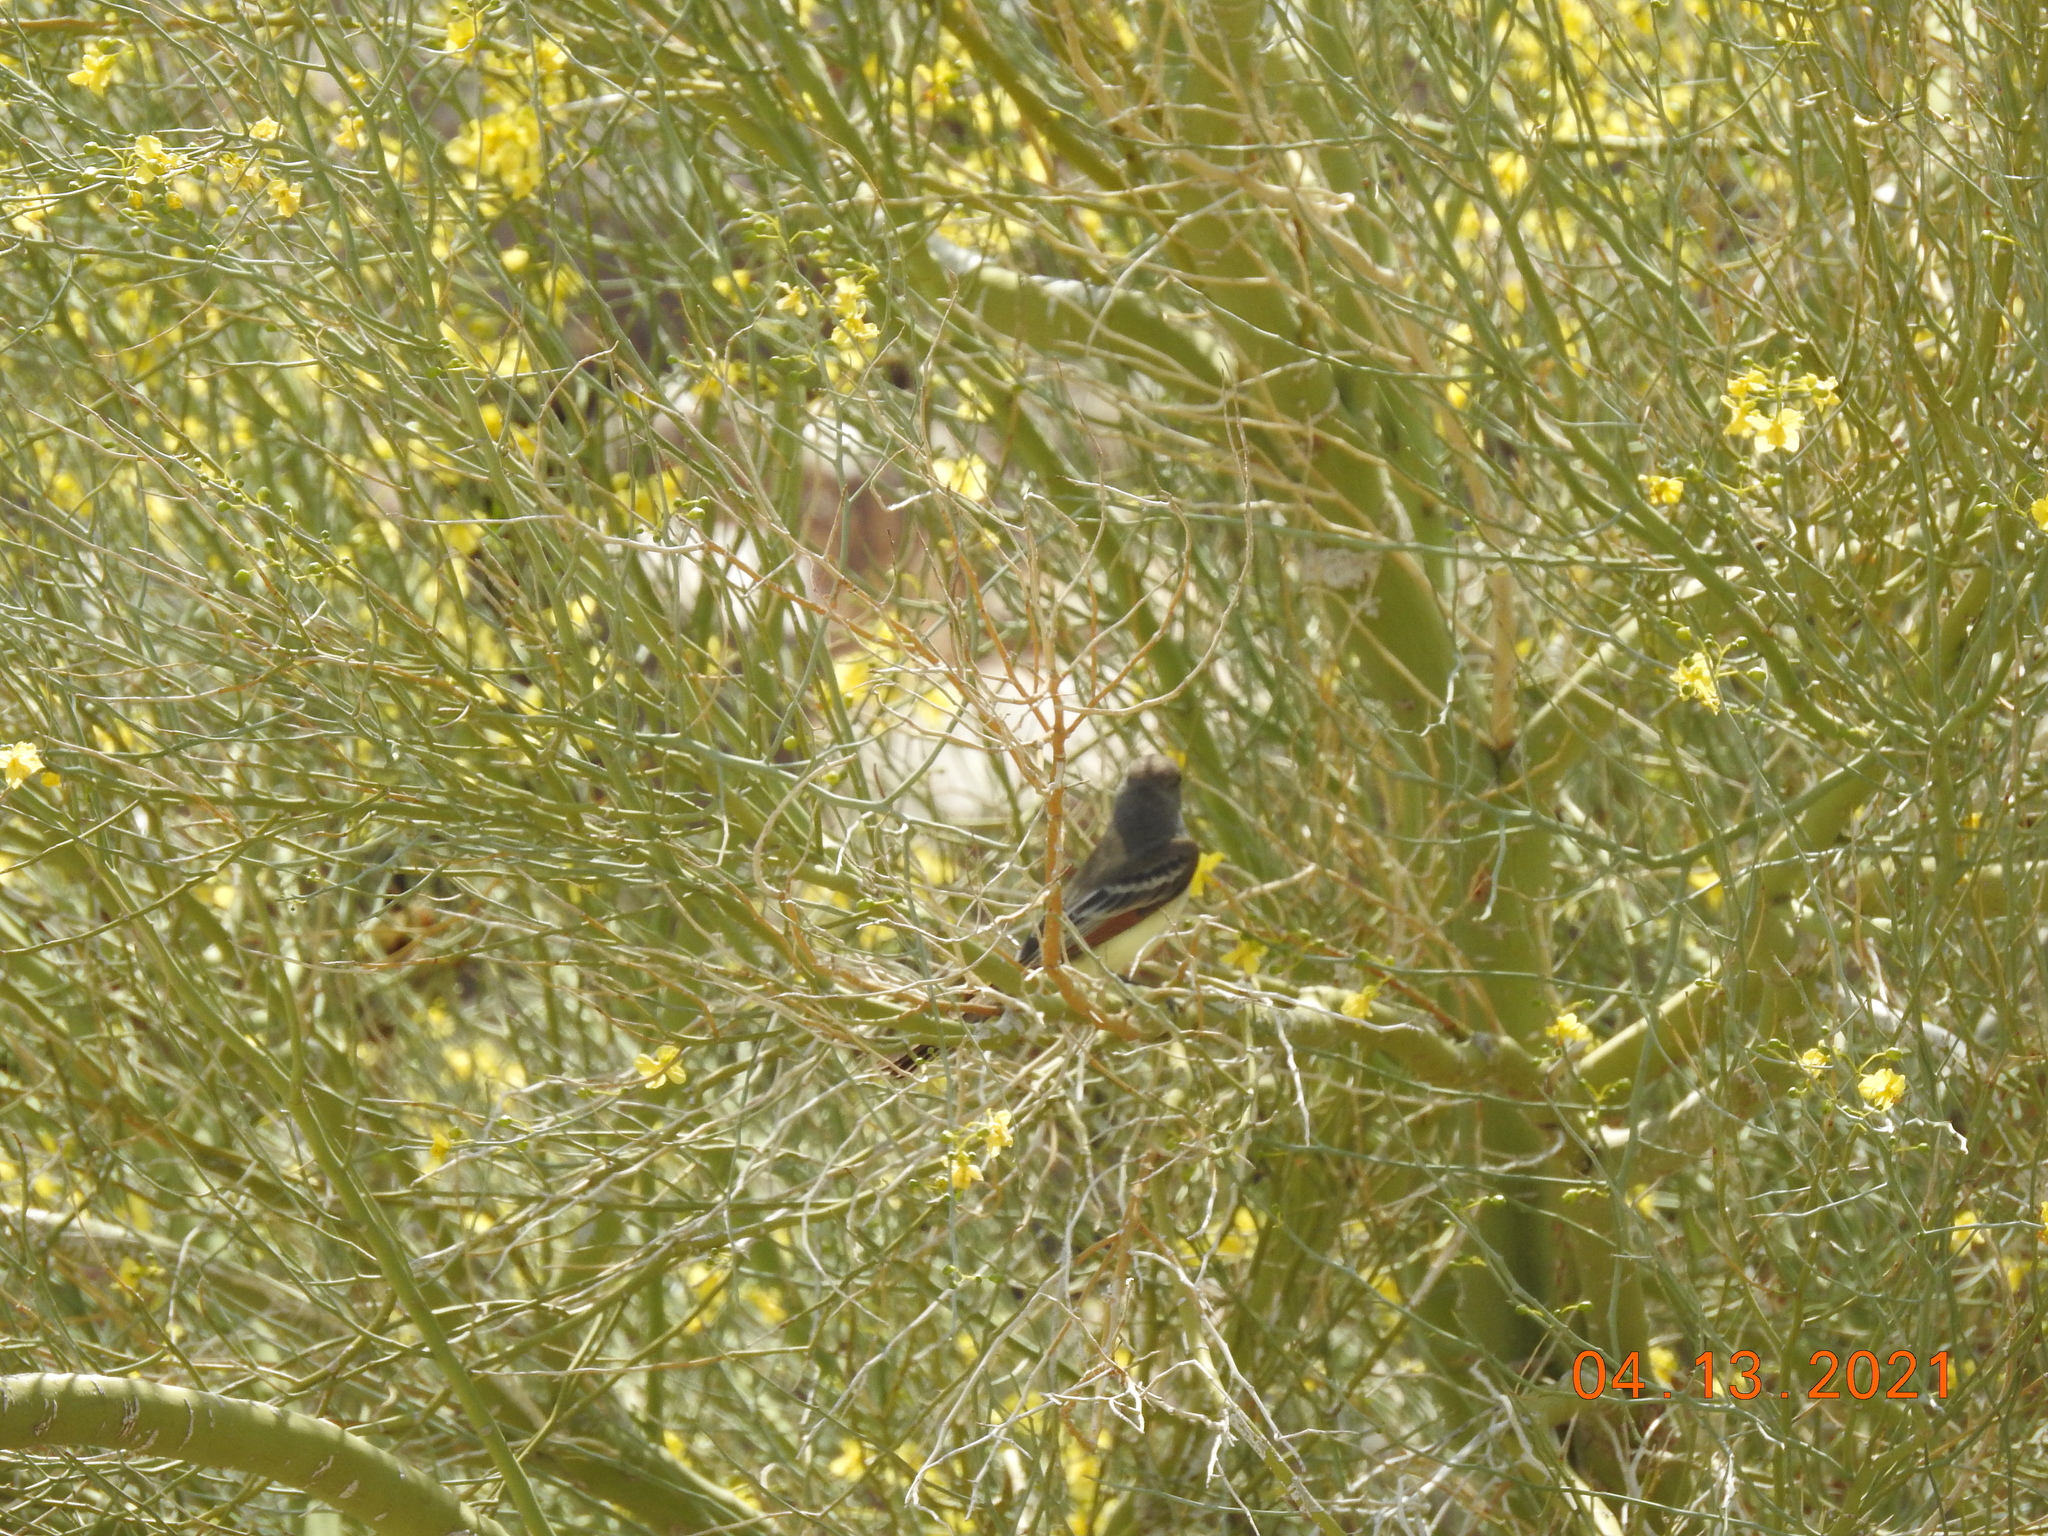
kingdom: Animalia
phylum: Chordata
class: Aves
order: Passeriformes
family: Tyrannidae
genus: Myiarchus
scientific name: Myiarchus cinerascens
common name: Ash-throated flycatcher
